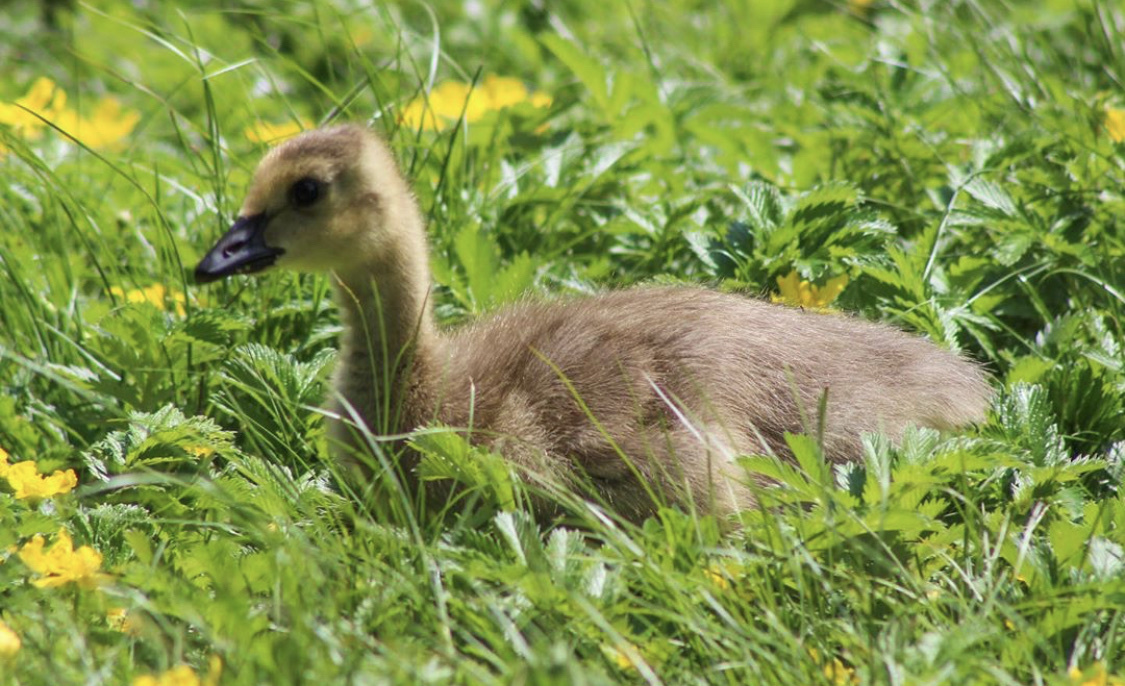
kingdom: Animalia
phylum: Chordata
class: Aves
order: Anseriformes
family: Anatidae
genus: Branta
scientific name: Branta canadensis
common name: Canada goose
